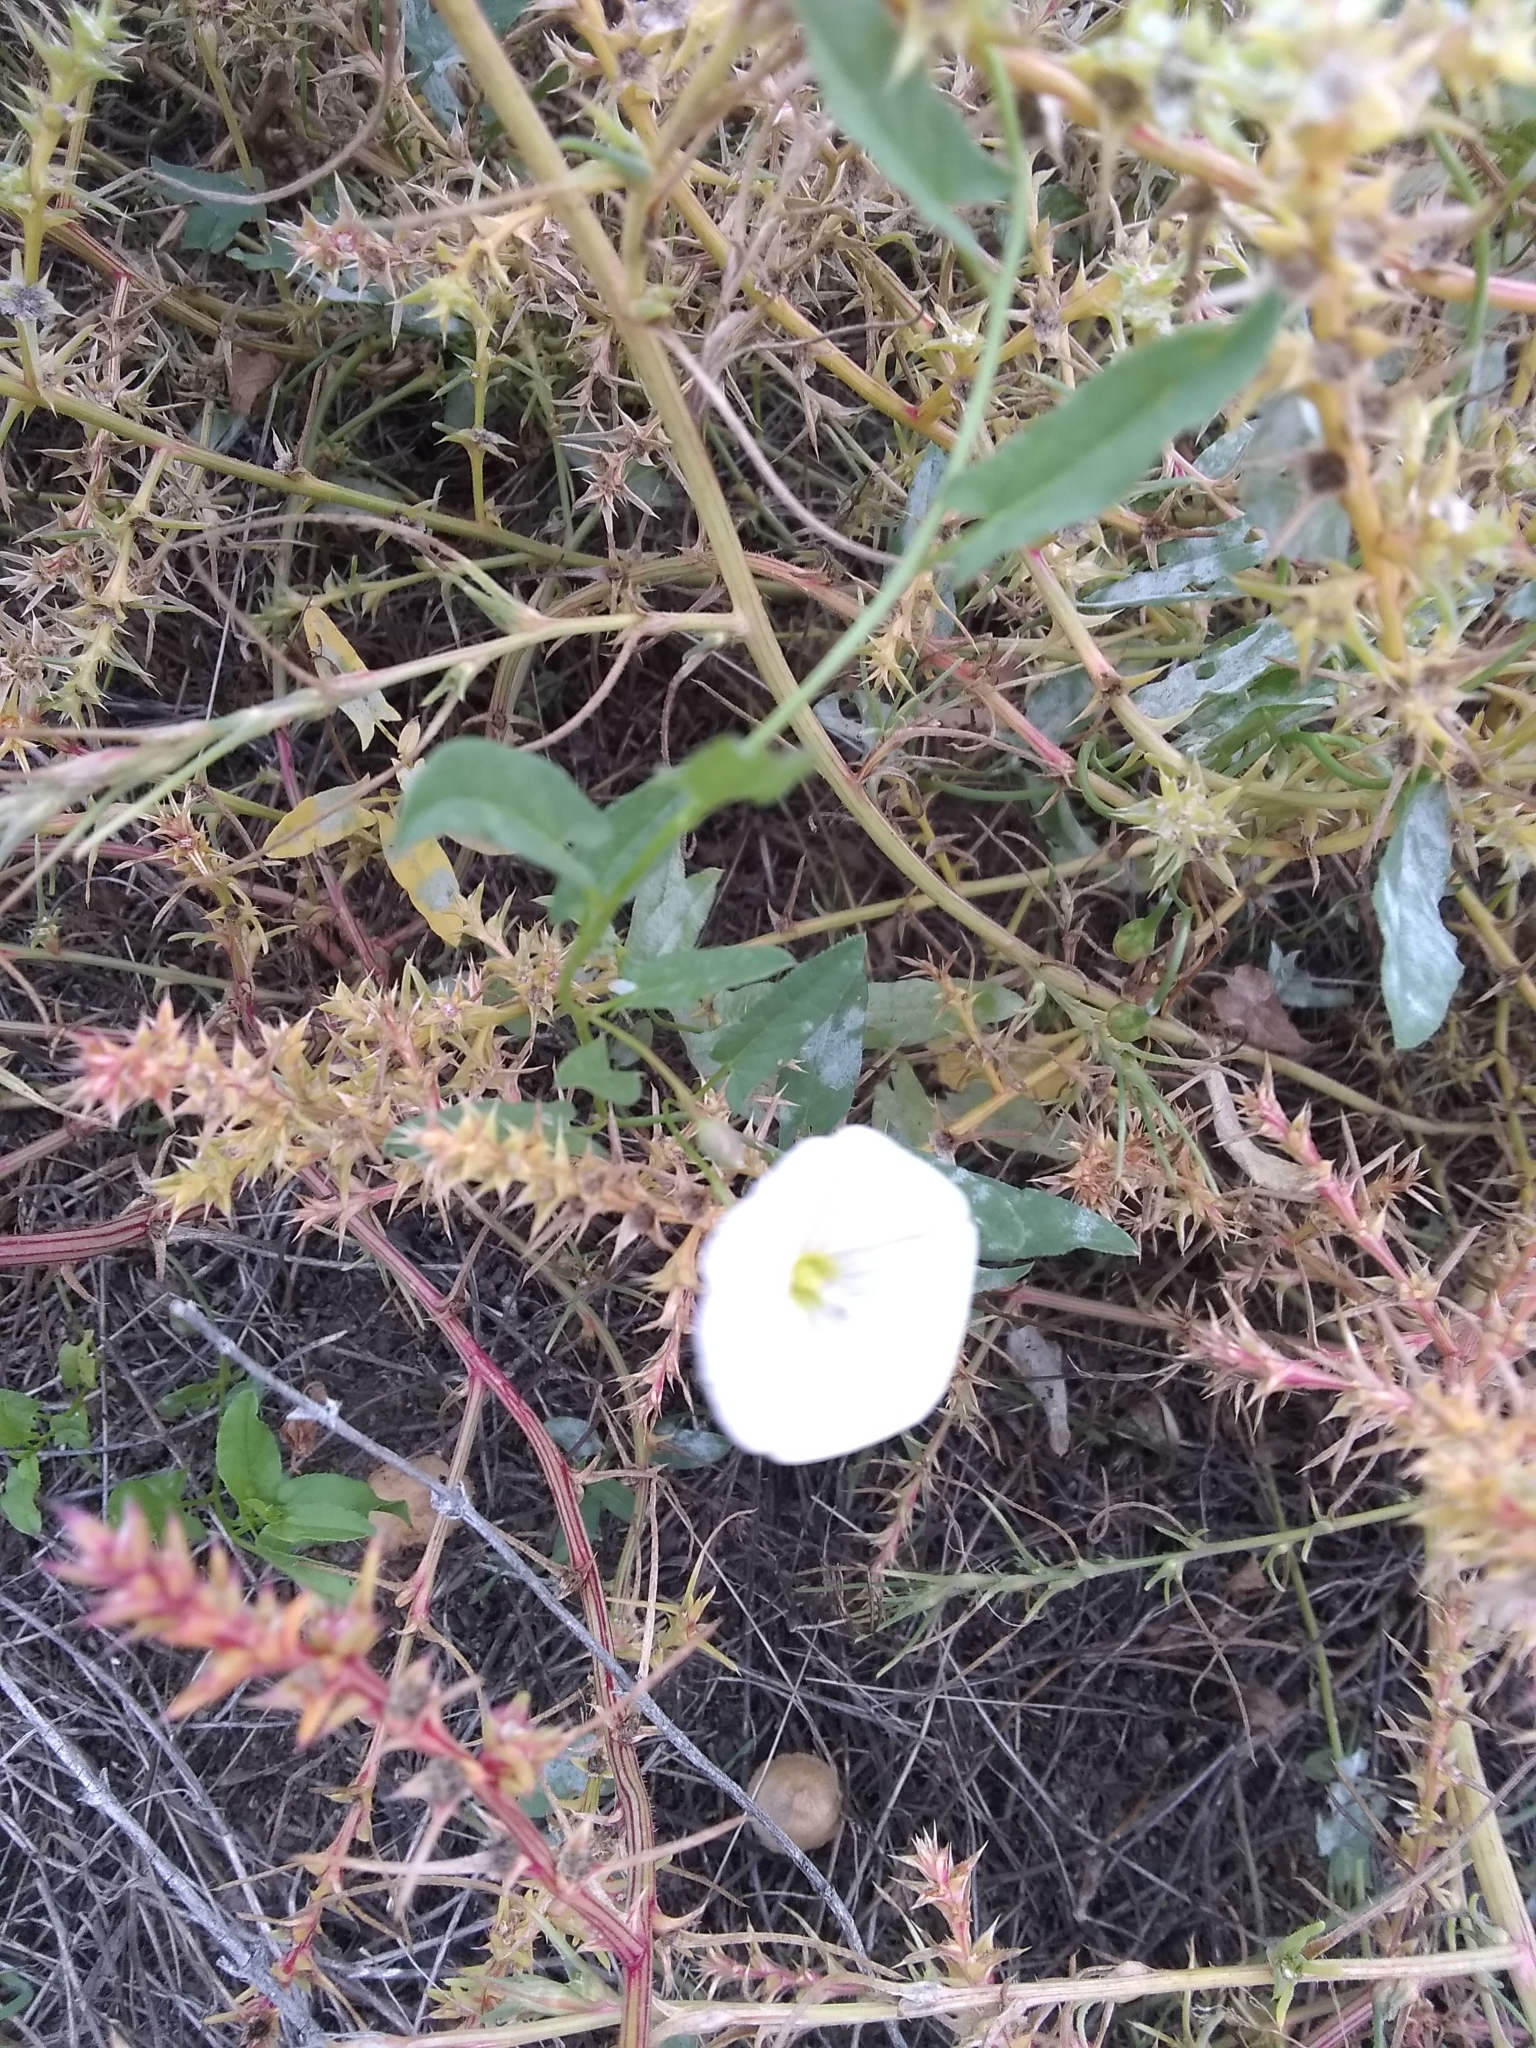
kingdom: Plantae
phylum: Tracheophyta
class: Magnoliopsida
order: Solanales
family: Convolvulaceae
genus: Convolvulus
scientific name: Convolvulus arvensis
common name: Field bindweed
